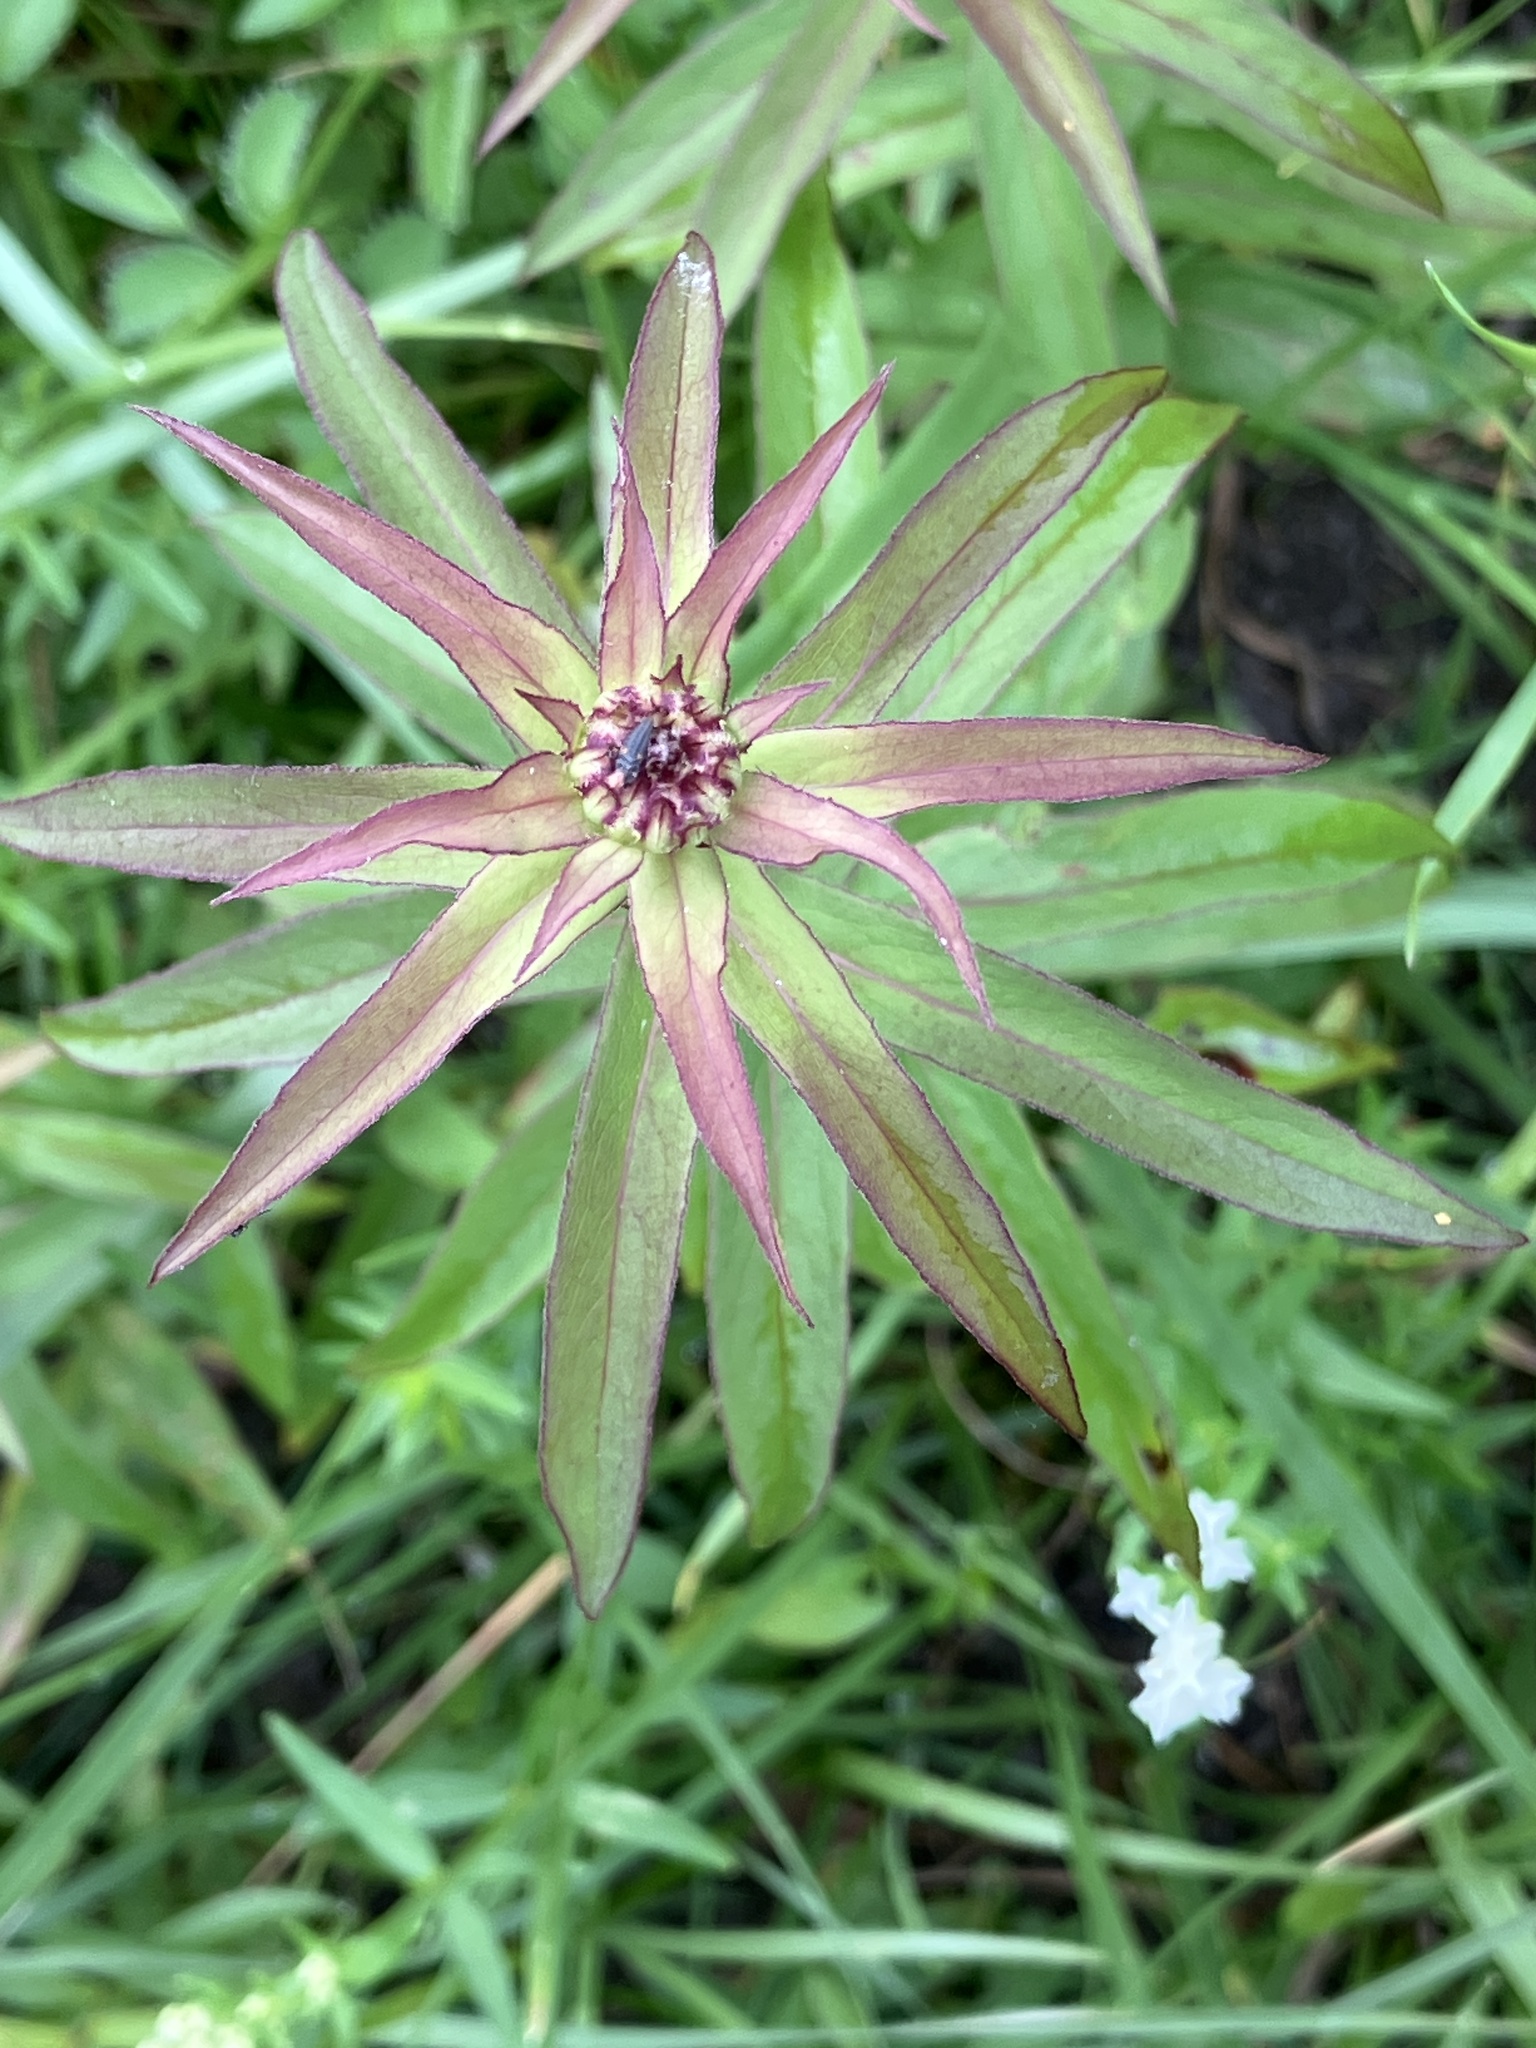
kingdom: Plantae
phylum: Tracheophyta
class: Magnoliopsida
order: Asterales
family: Asteraceae
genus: Pentanema
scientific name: Pentanema salicinum
